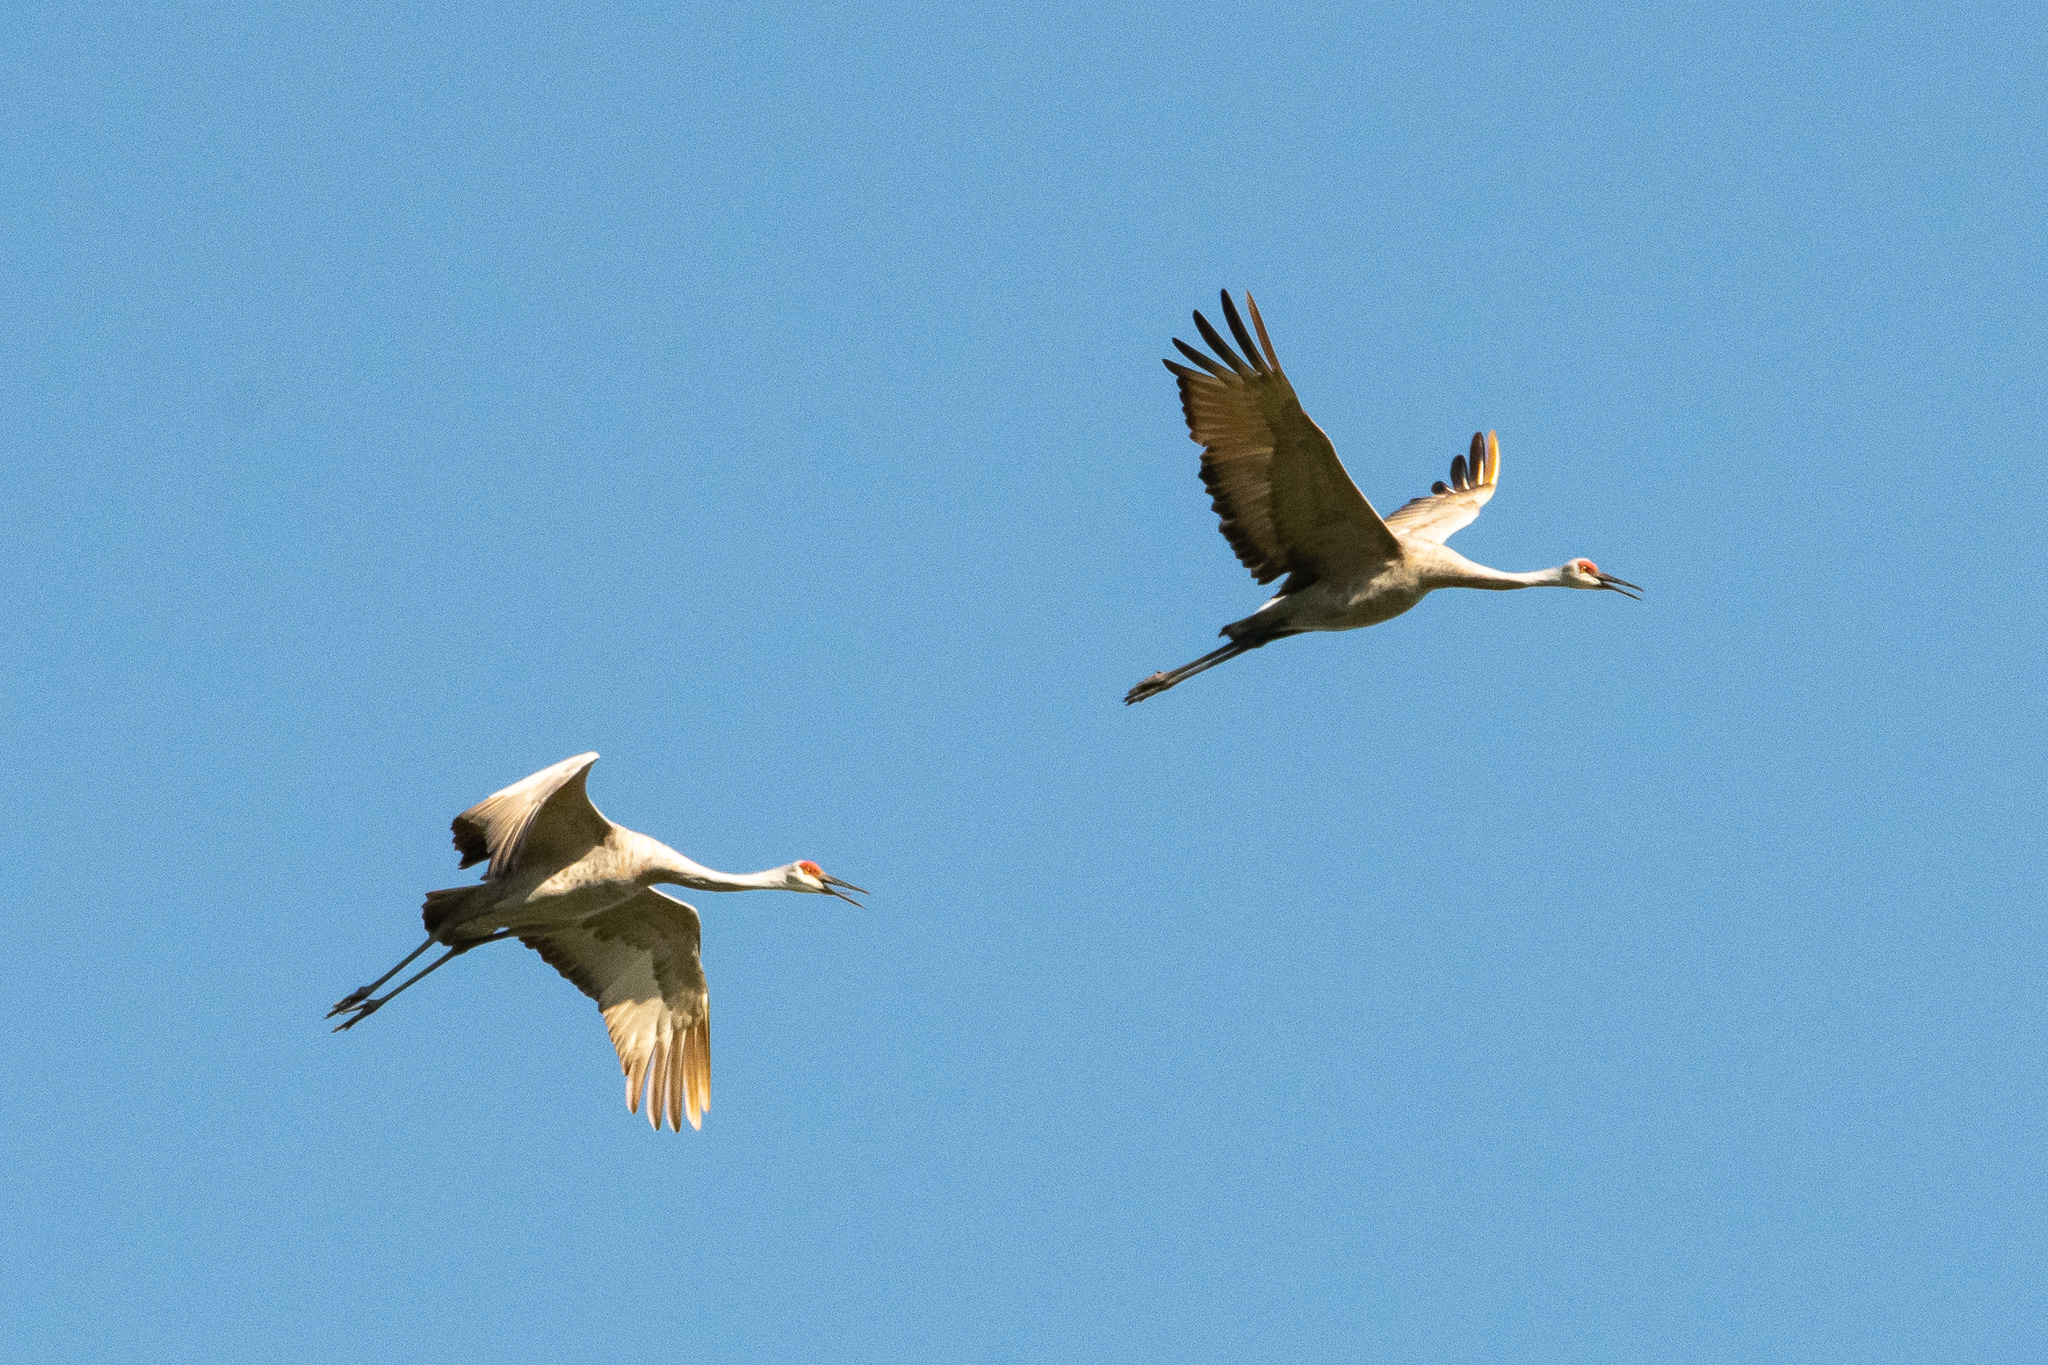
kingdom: Animalia
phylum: Chordata
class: Aves
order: Gruiformes
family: Gruidae
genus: Grus
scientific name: Grus canadensis
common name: Sandhill crane
